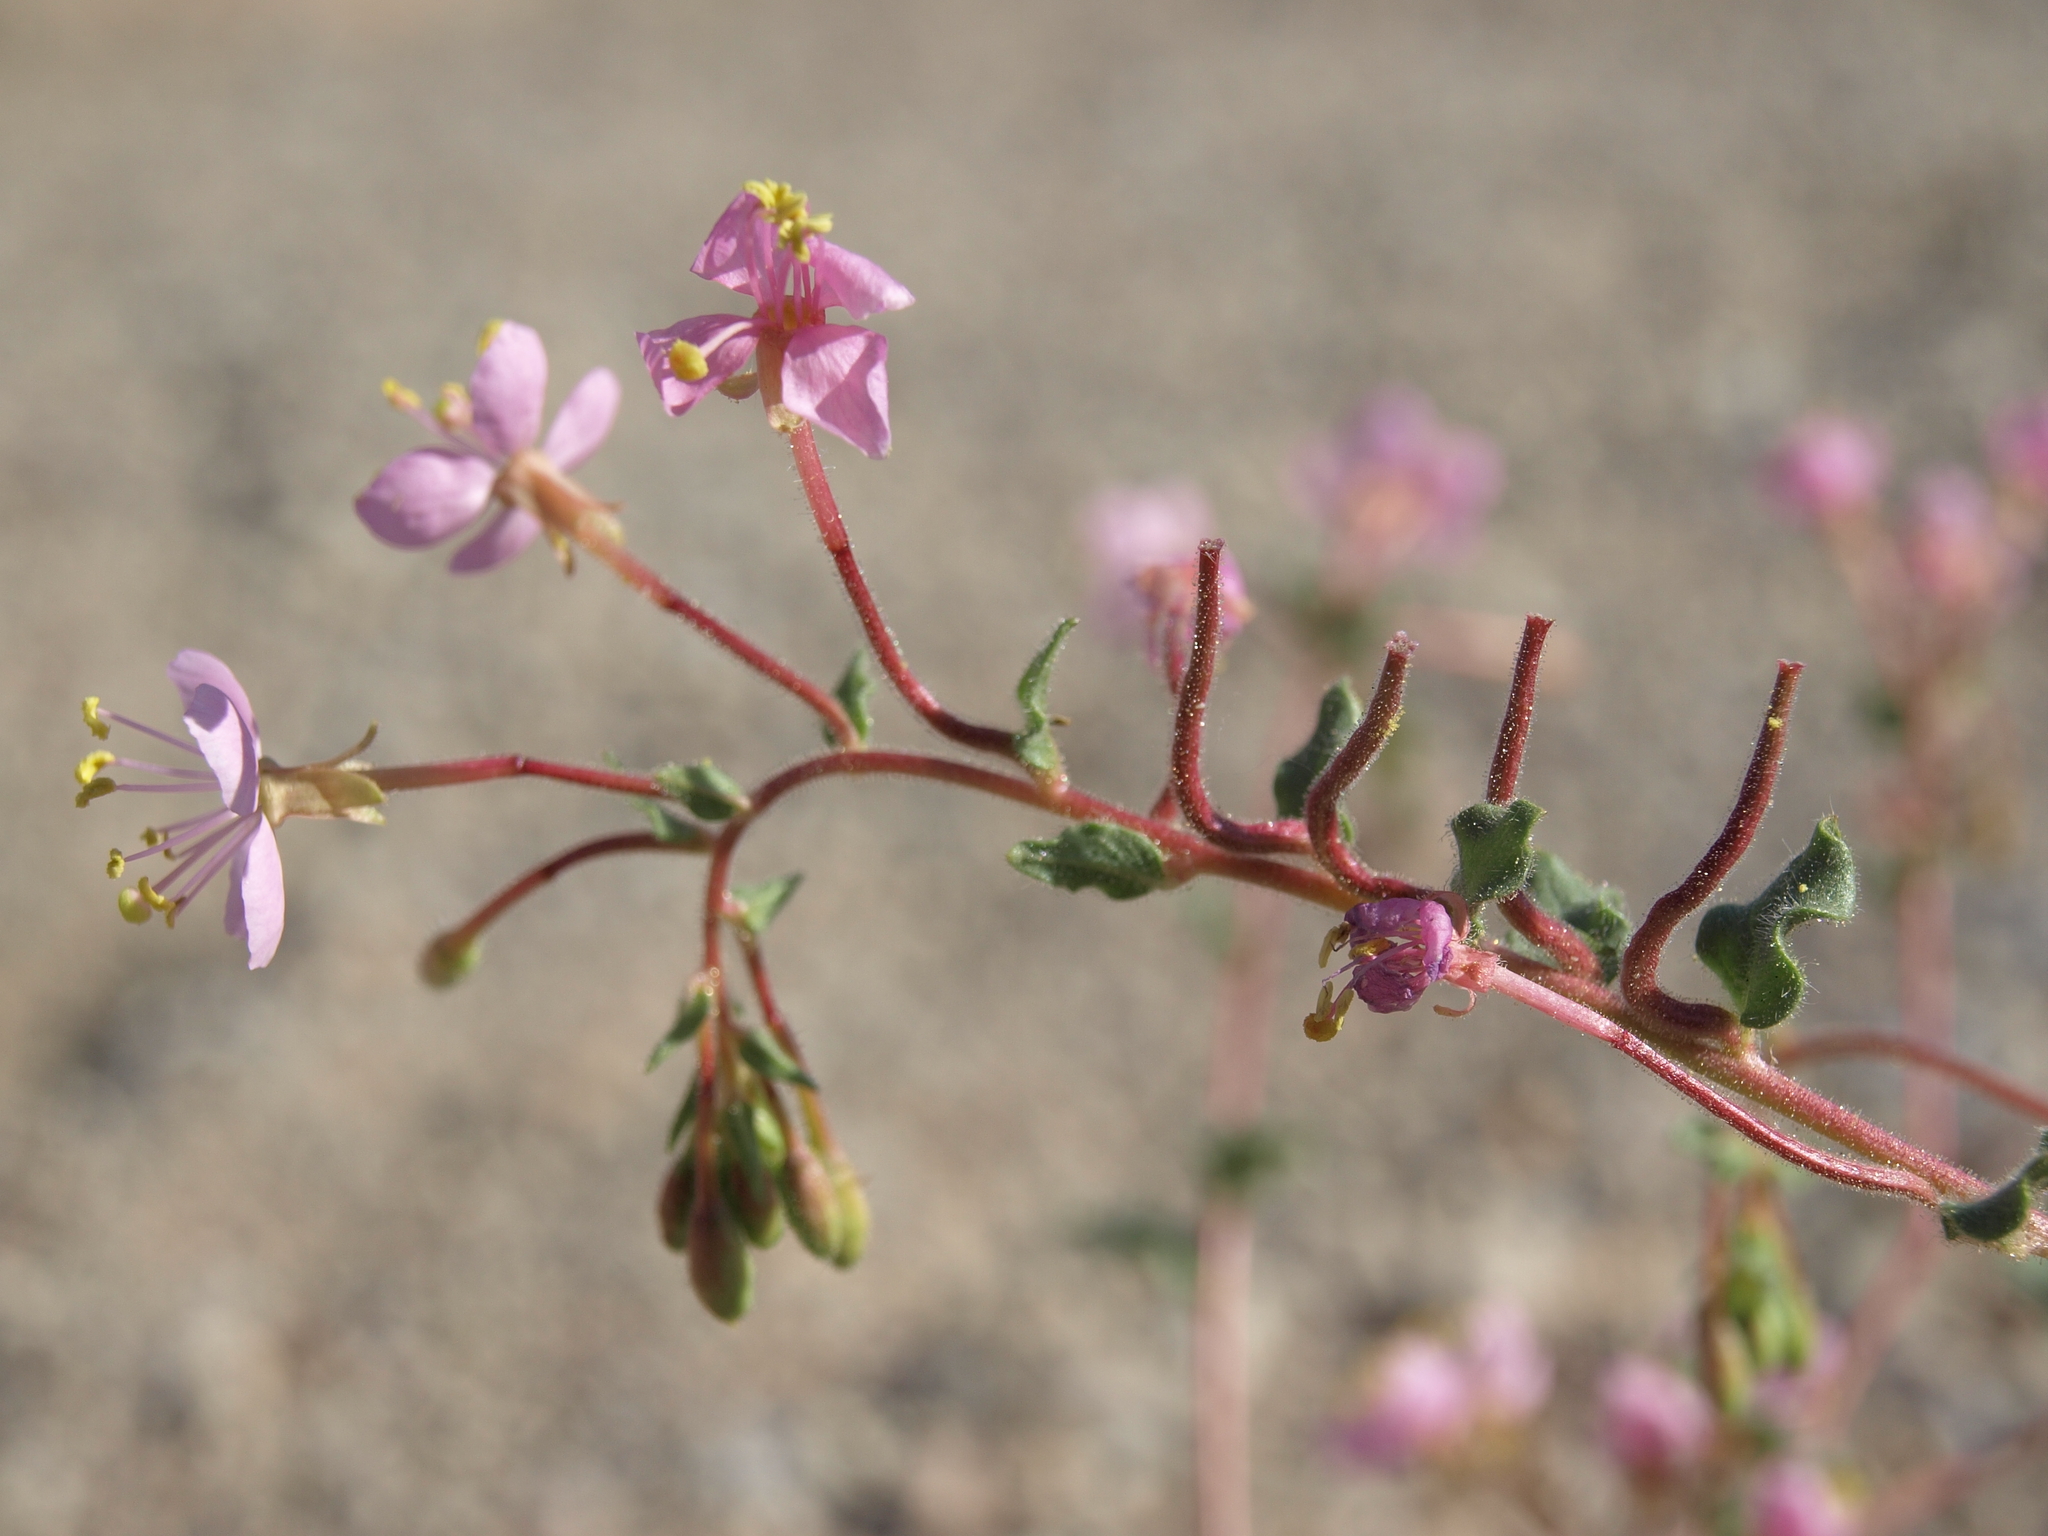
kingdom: Plantae
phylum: Tracheophyta
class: Magnoliopsida
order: Myrtales
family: Onagraceae
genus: Eremothera
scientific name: Eremothera boothii
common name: Booth's evening primrose
